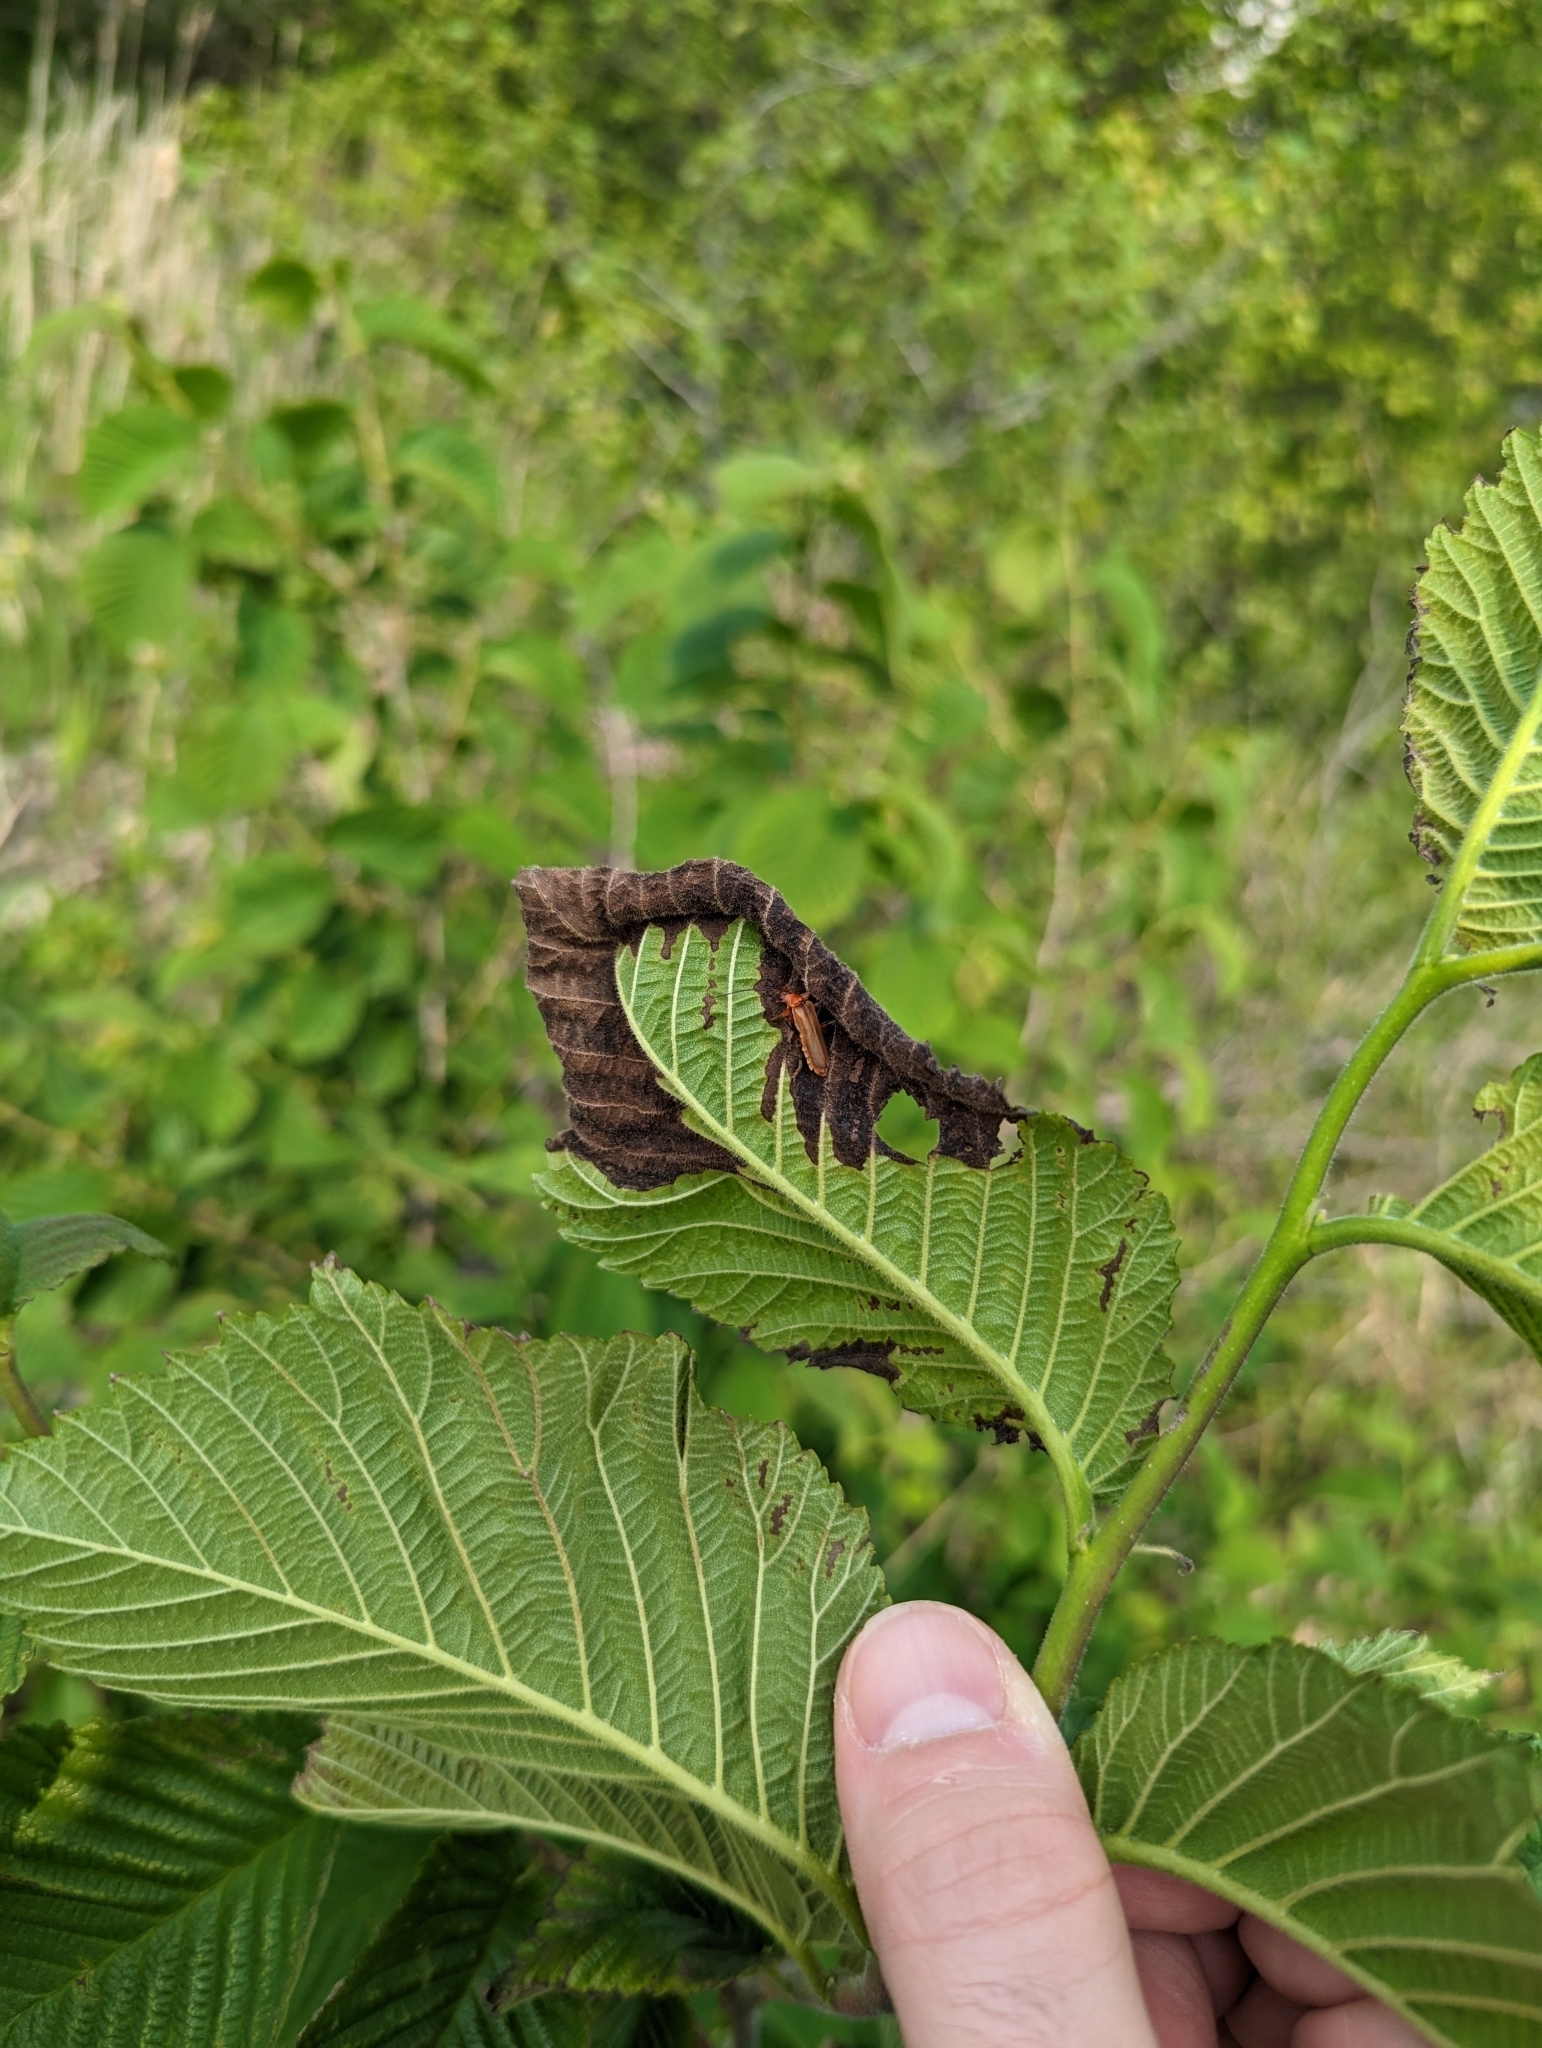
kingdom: Animalia
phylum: Arthropoda
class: Insecta
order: Coleoptera
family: Cantharidae
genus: Cantharis
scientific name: Cantharis livida
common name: Livid soldier beetle
